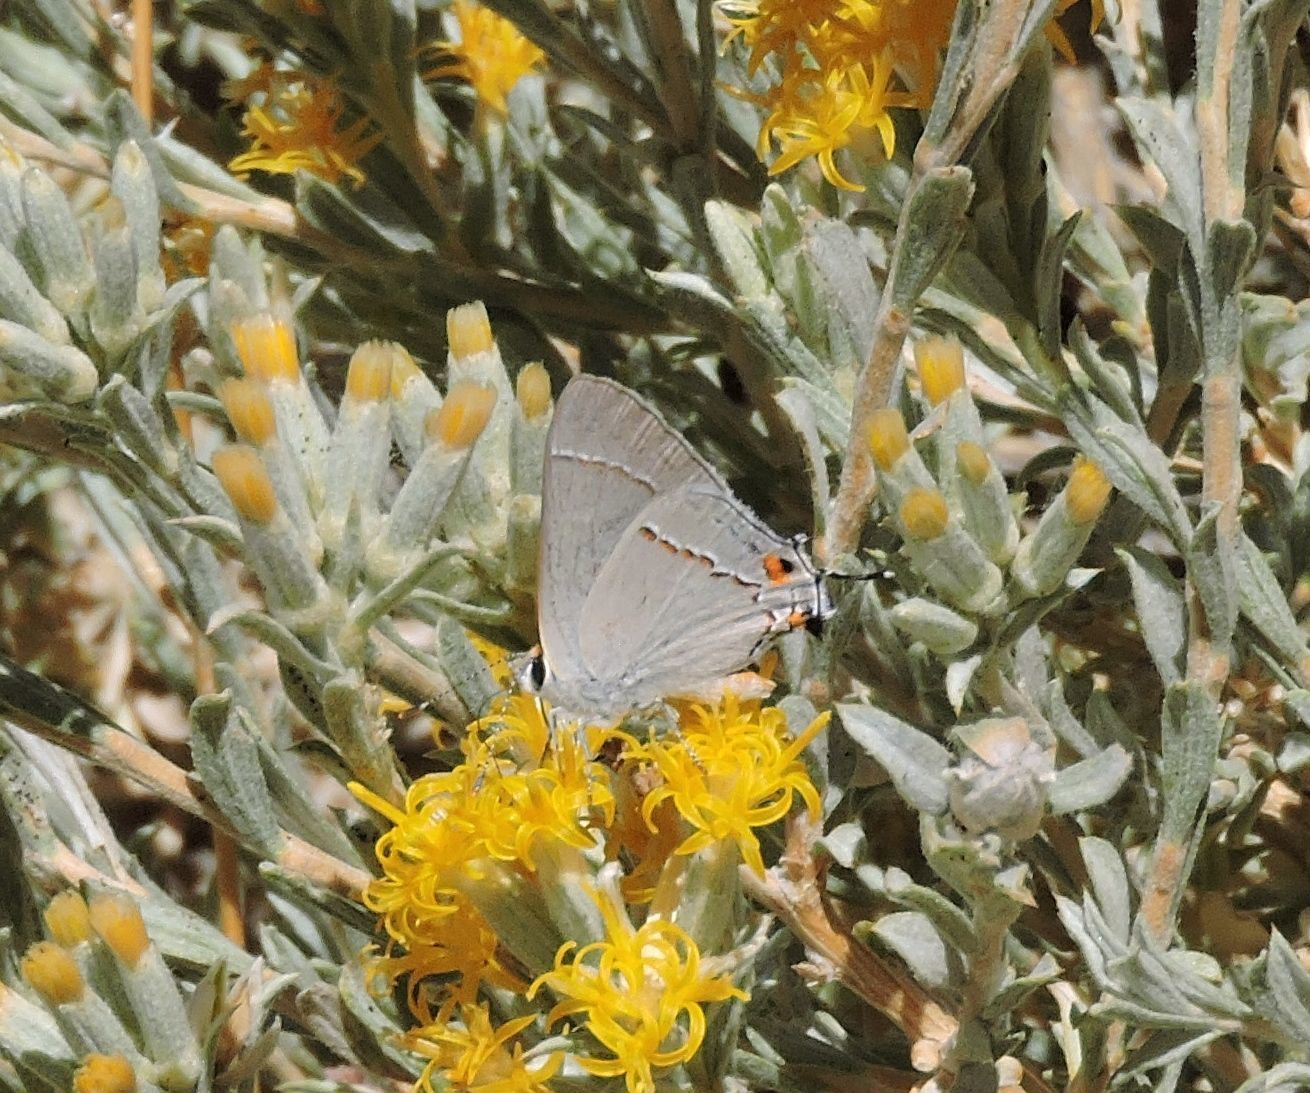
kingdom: Animalia
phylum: Arthropoda
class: Insecta
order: Lepidoptera
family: Lycaenidae
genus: Strymon
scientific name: Strymon melinus
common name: Gray hairstreak
